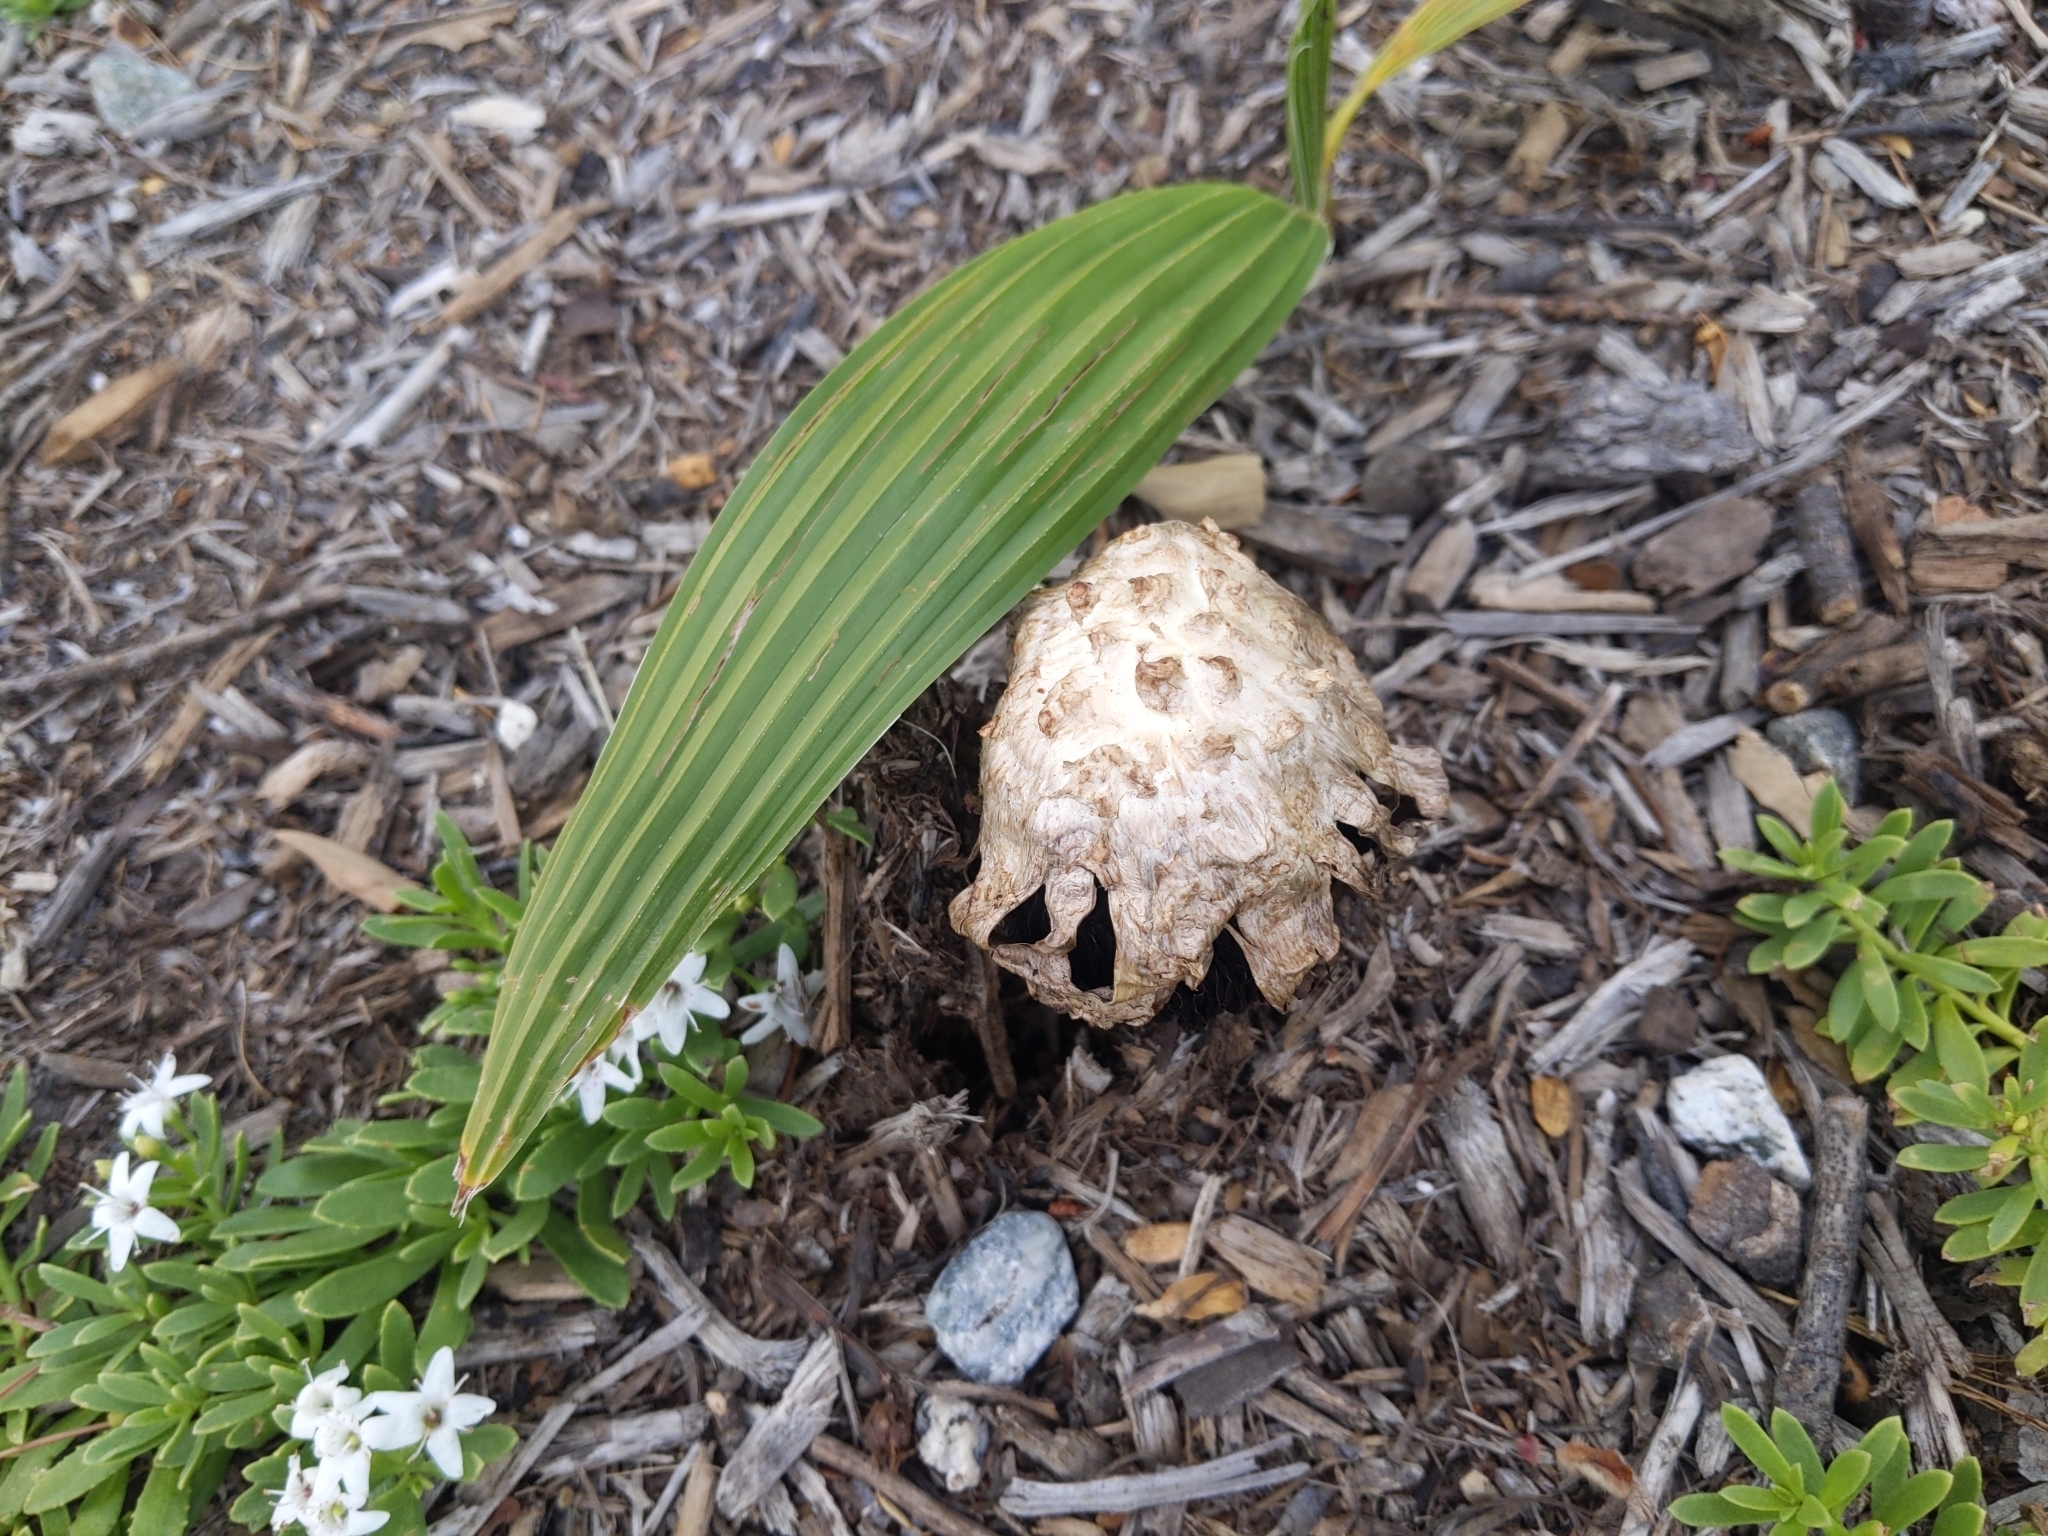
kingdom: Fungi
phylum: Basidiomycota
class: Agaricomycetes
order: Agaricales
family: Agaricaceae
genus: Agaricus
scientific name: Agaricus deserticola
